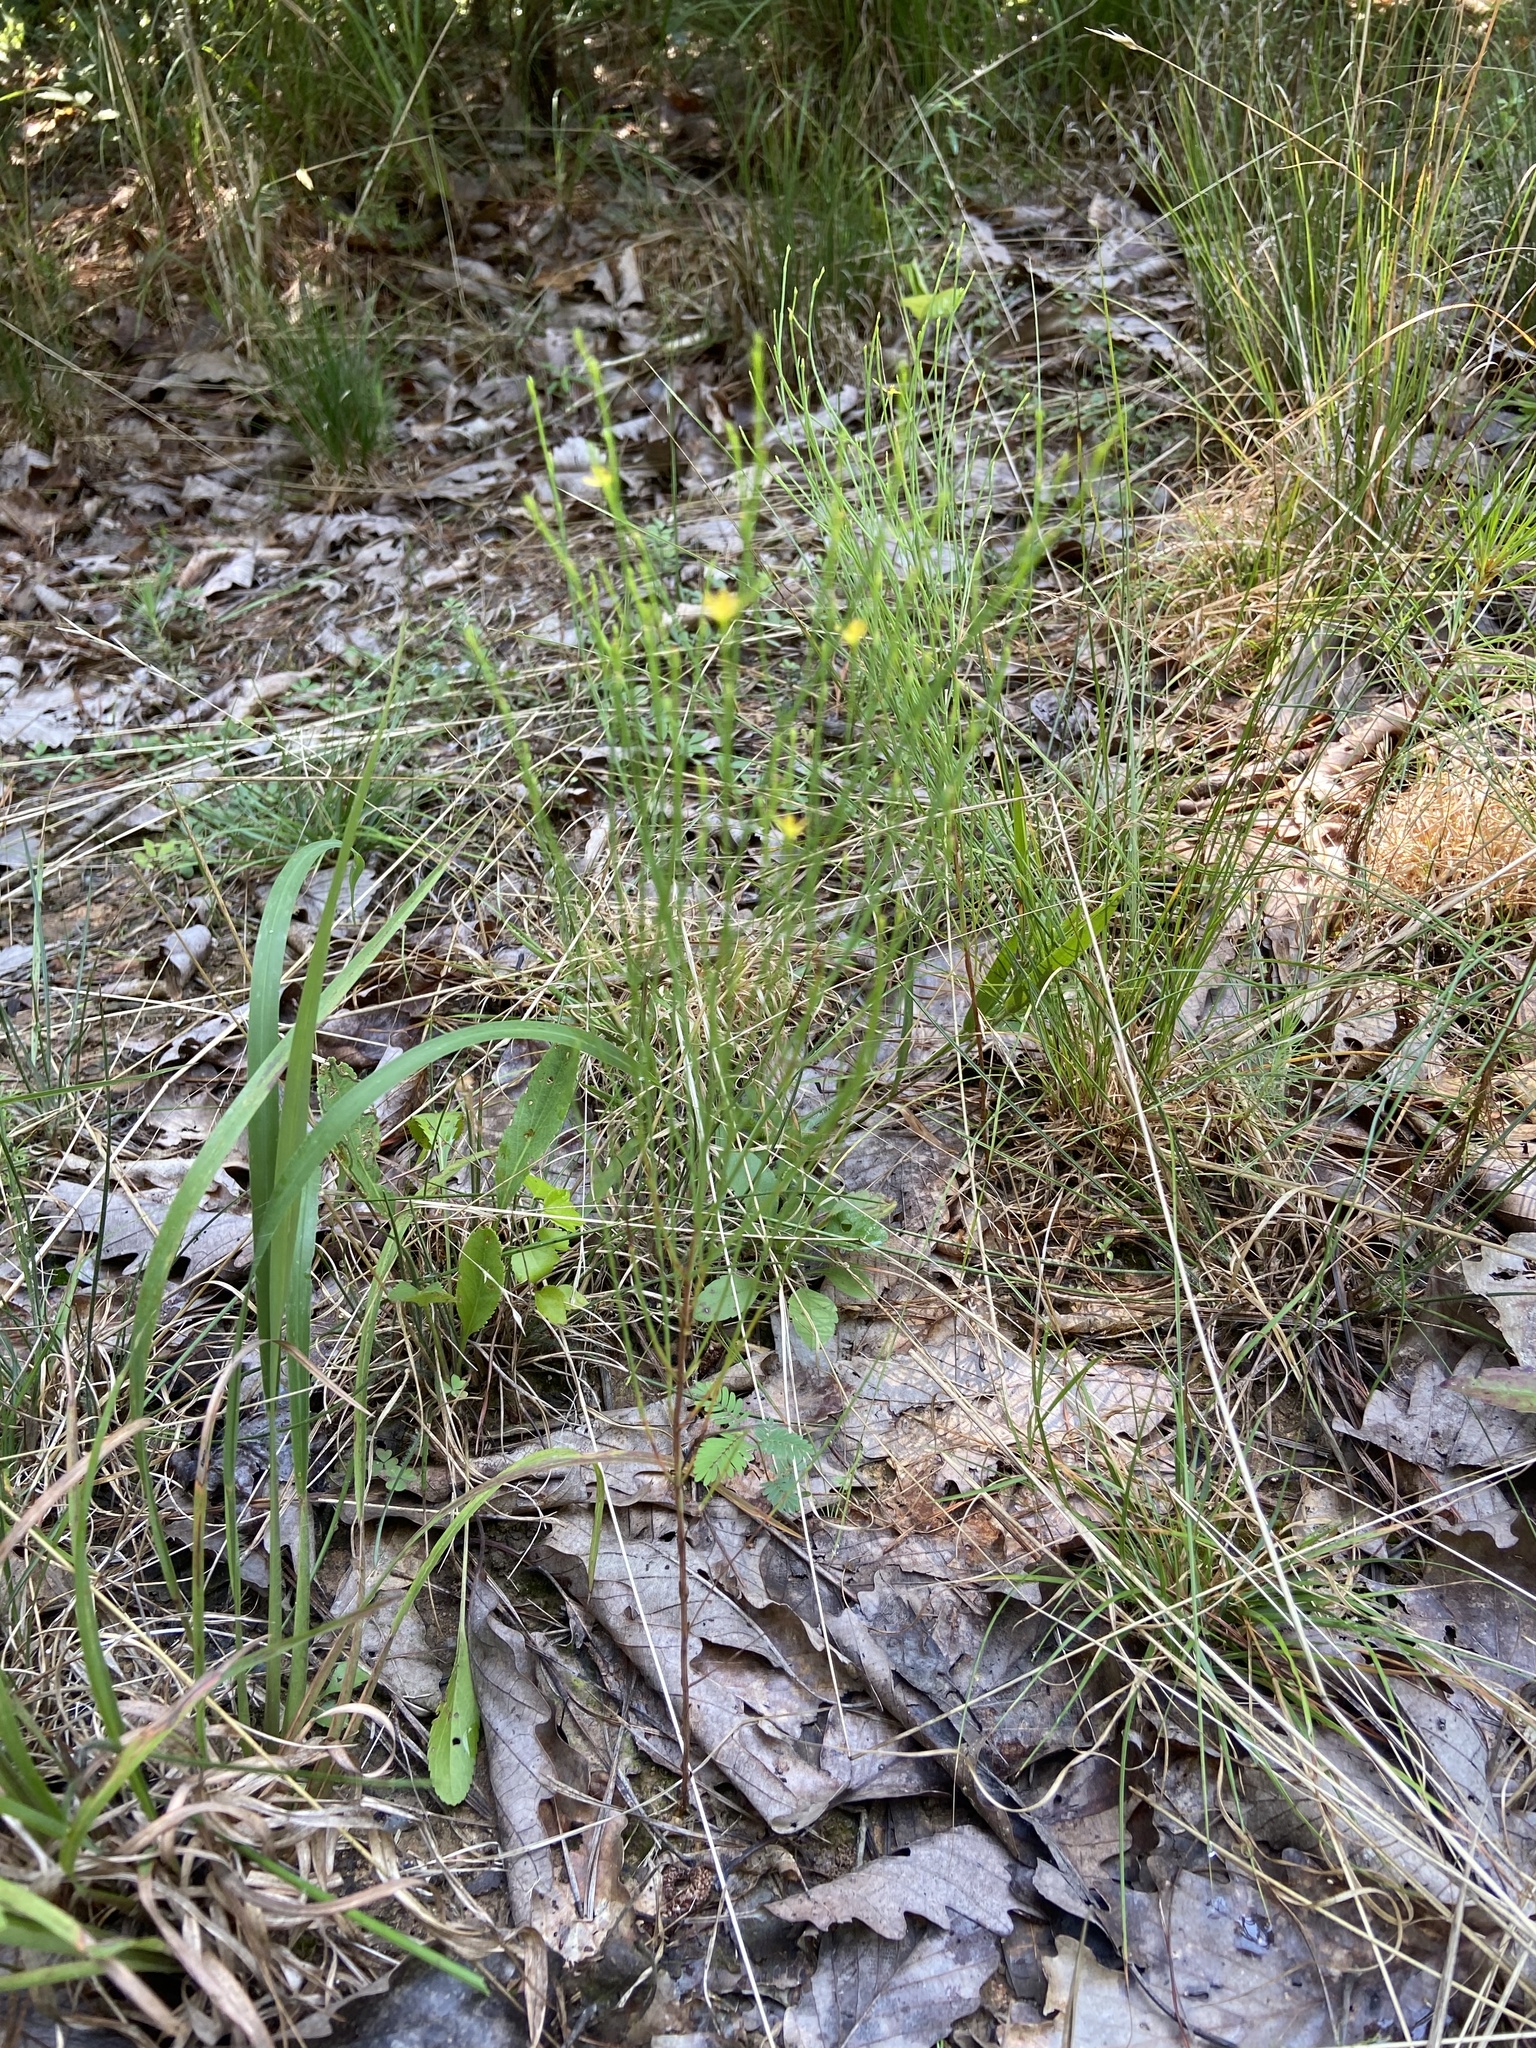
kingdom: Plantae
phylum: Tracheophyta
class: Magnoliopsida
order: Malpighiales
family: Hypericaceae
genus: Hypericum
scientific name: Hypericum gentianoides
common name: Gentian-leaved st. john's-wort
